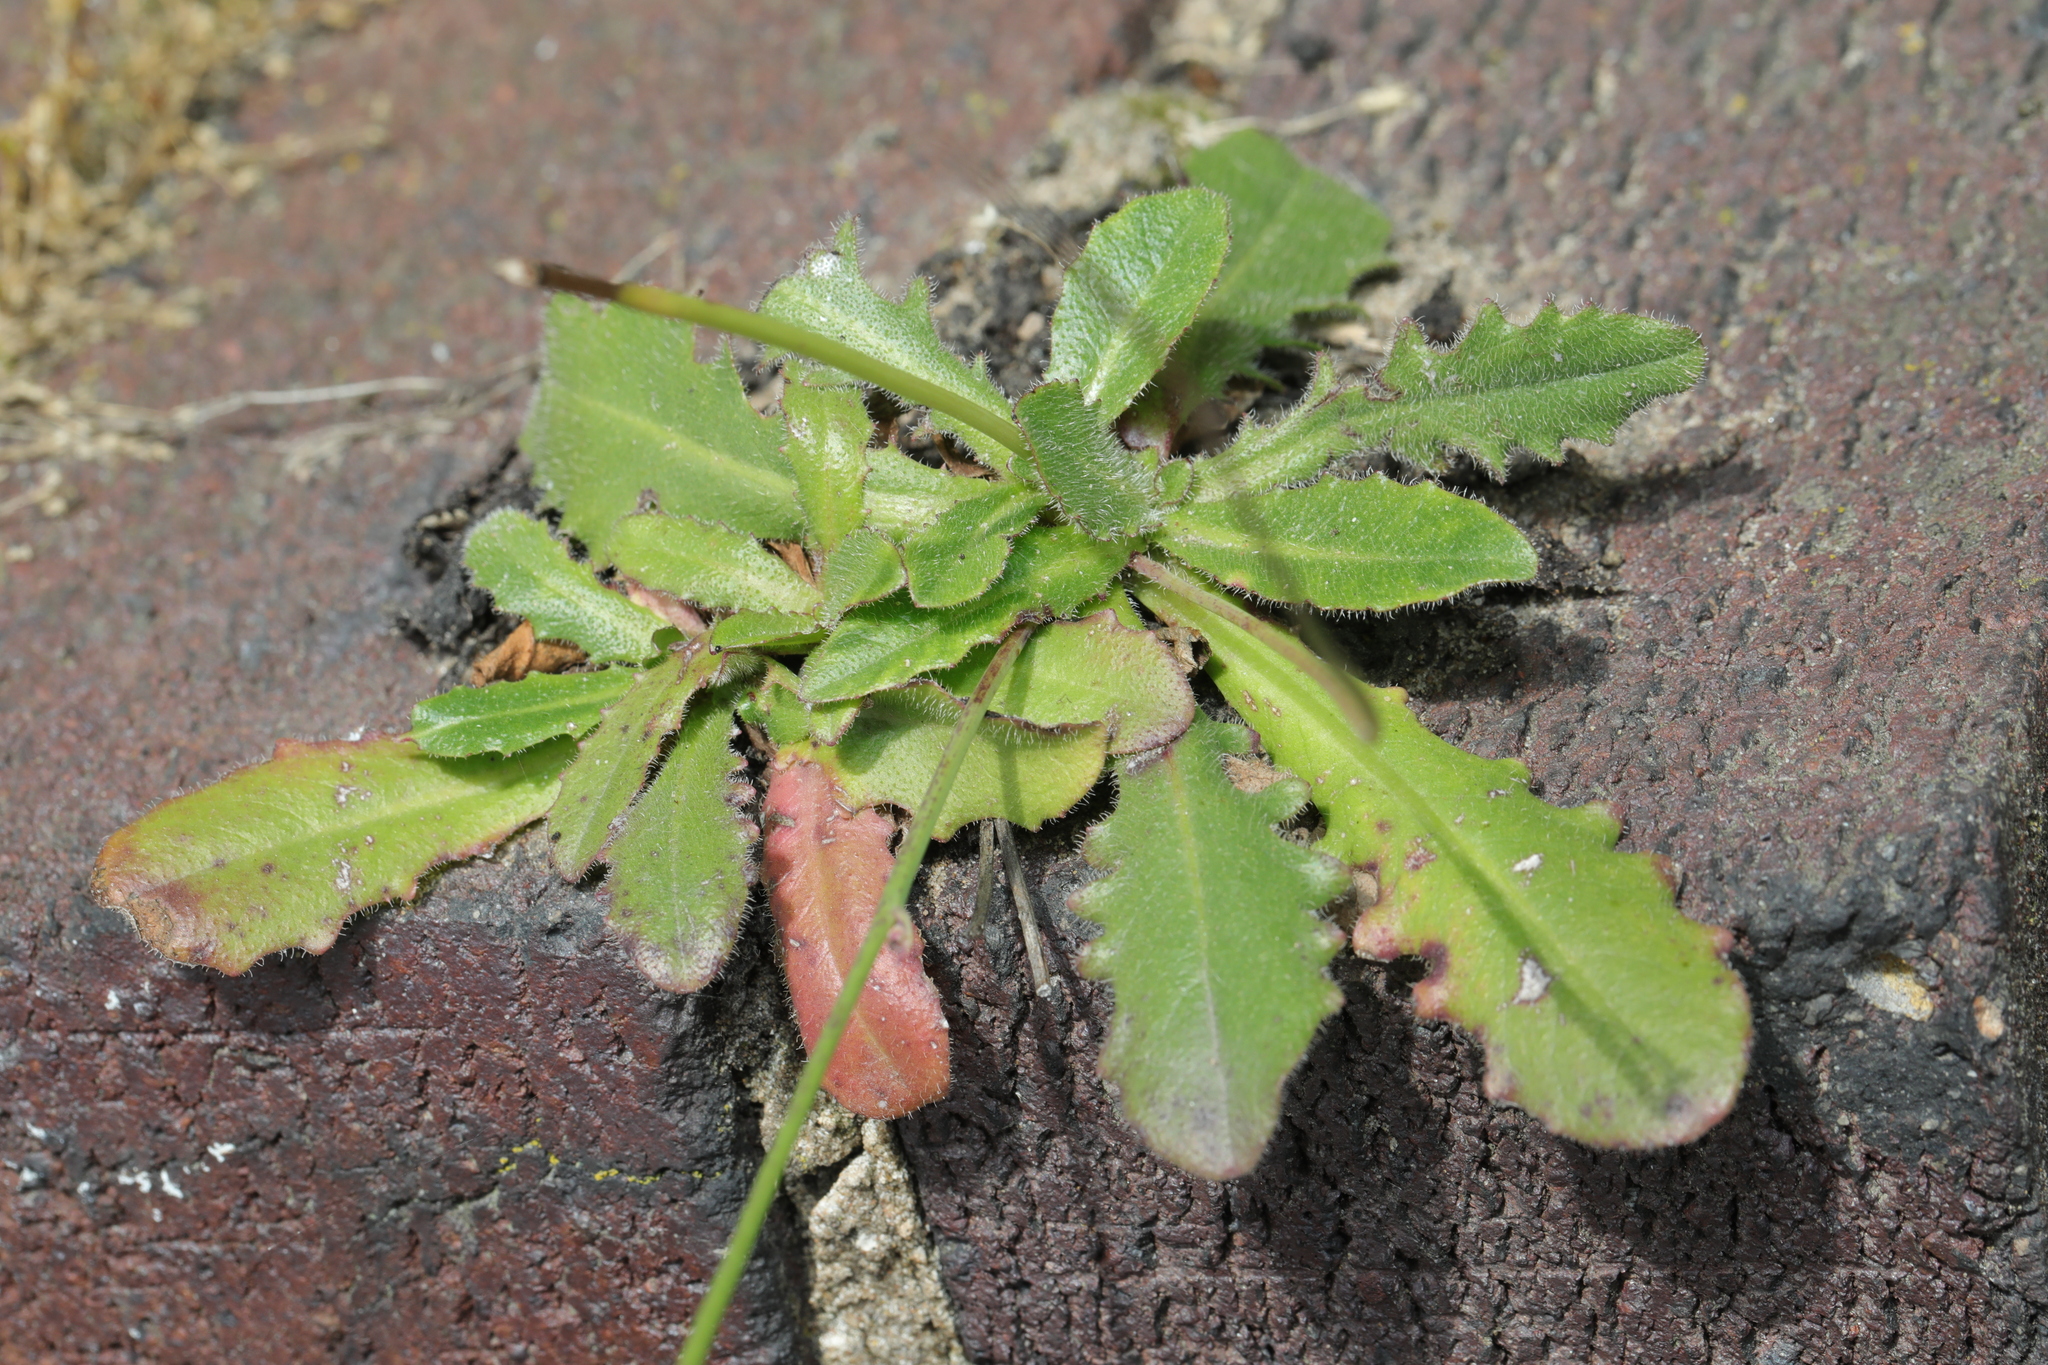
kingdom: Plantae
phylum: Tracheophyta
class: Magnoliopsida
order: Asterales
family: Asteraceae
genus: Hypochaeris
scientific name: Hypochaeris radicata
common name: Flatweed
